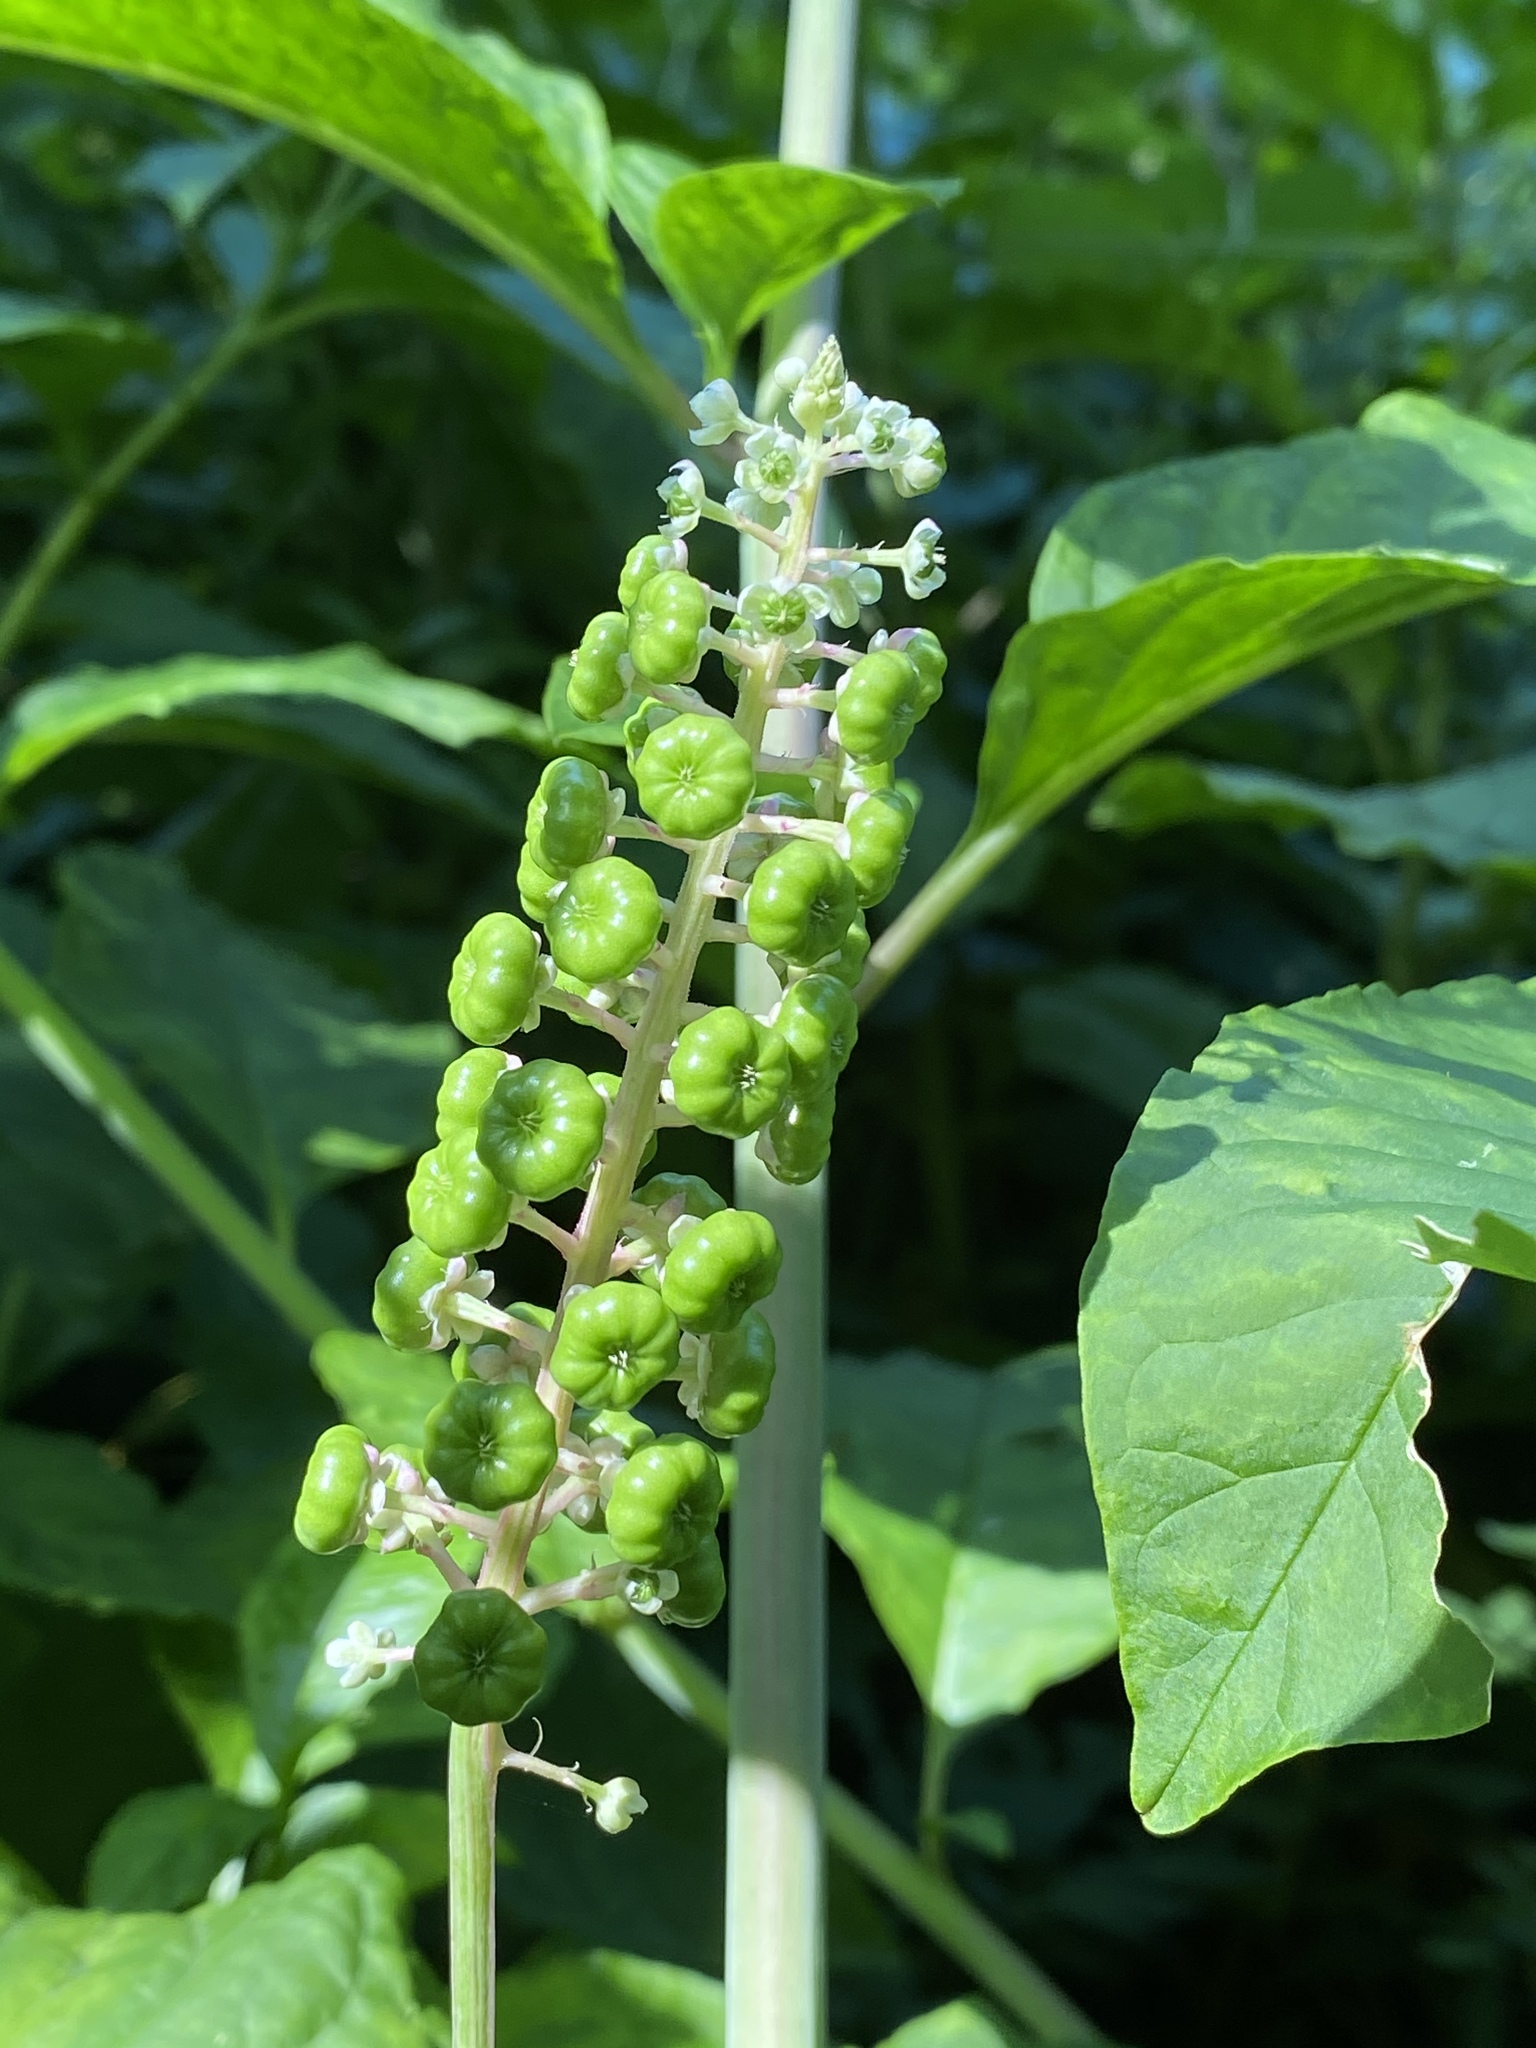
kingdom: Plantae
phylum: Tracheophyta
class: Magnoliopsida
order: Caryophyllales
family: Phytolaccaceae
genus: Phytolacca
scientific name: Phytolacca americana
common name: American pokeweed
